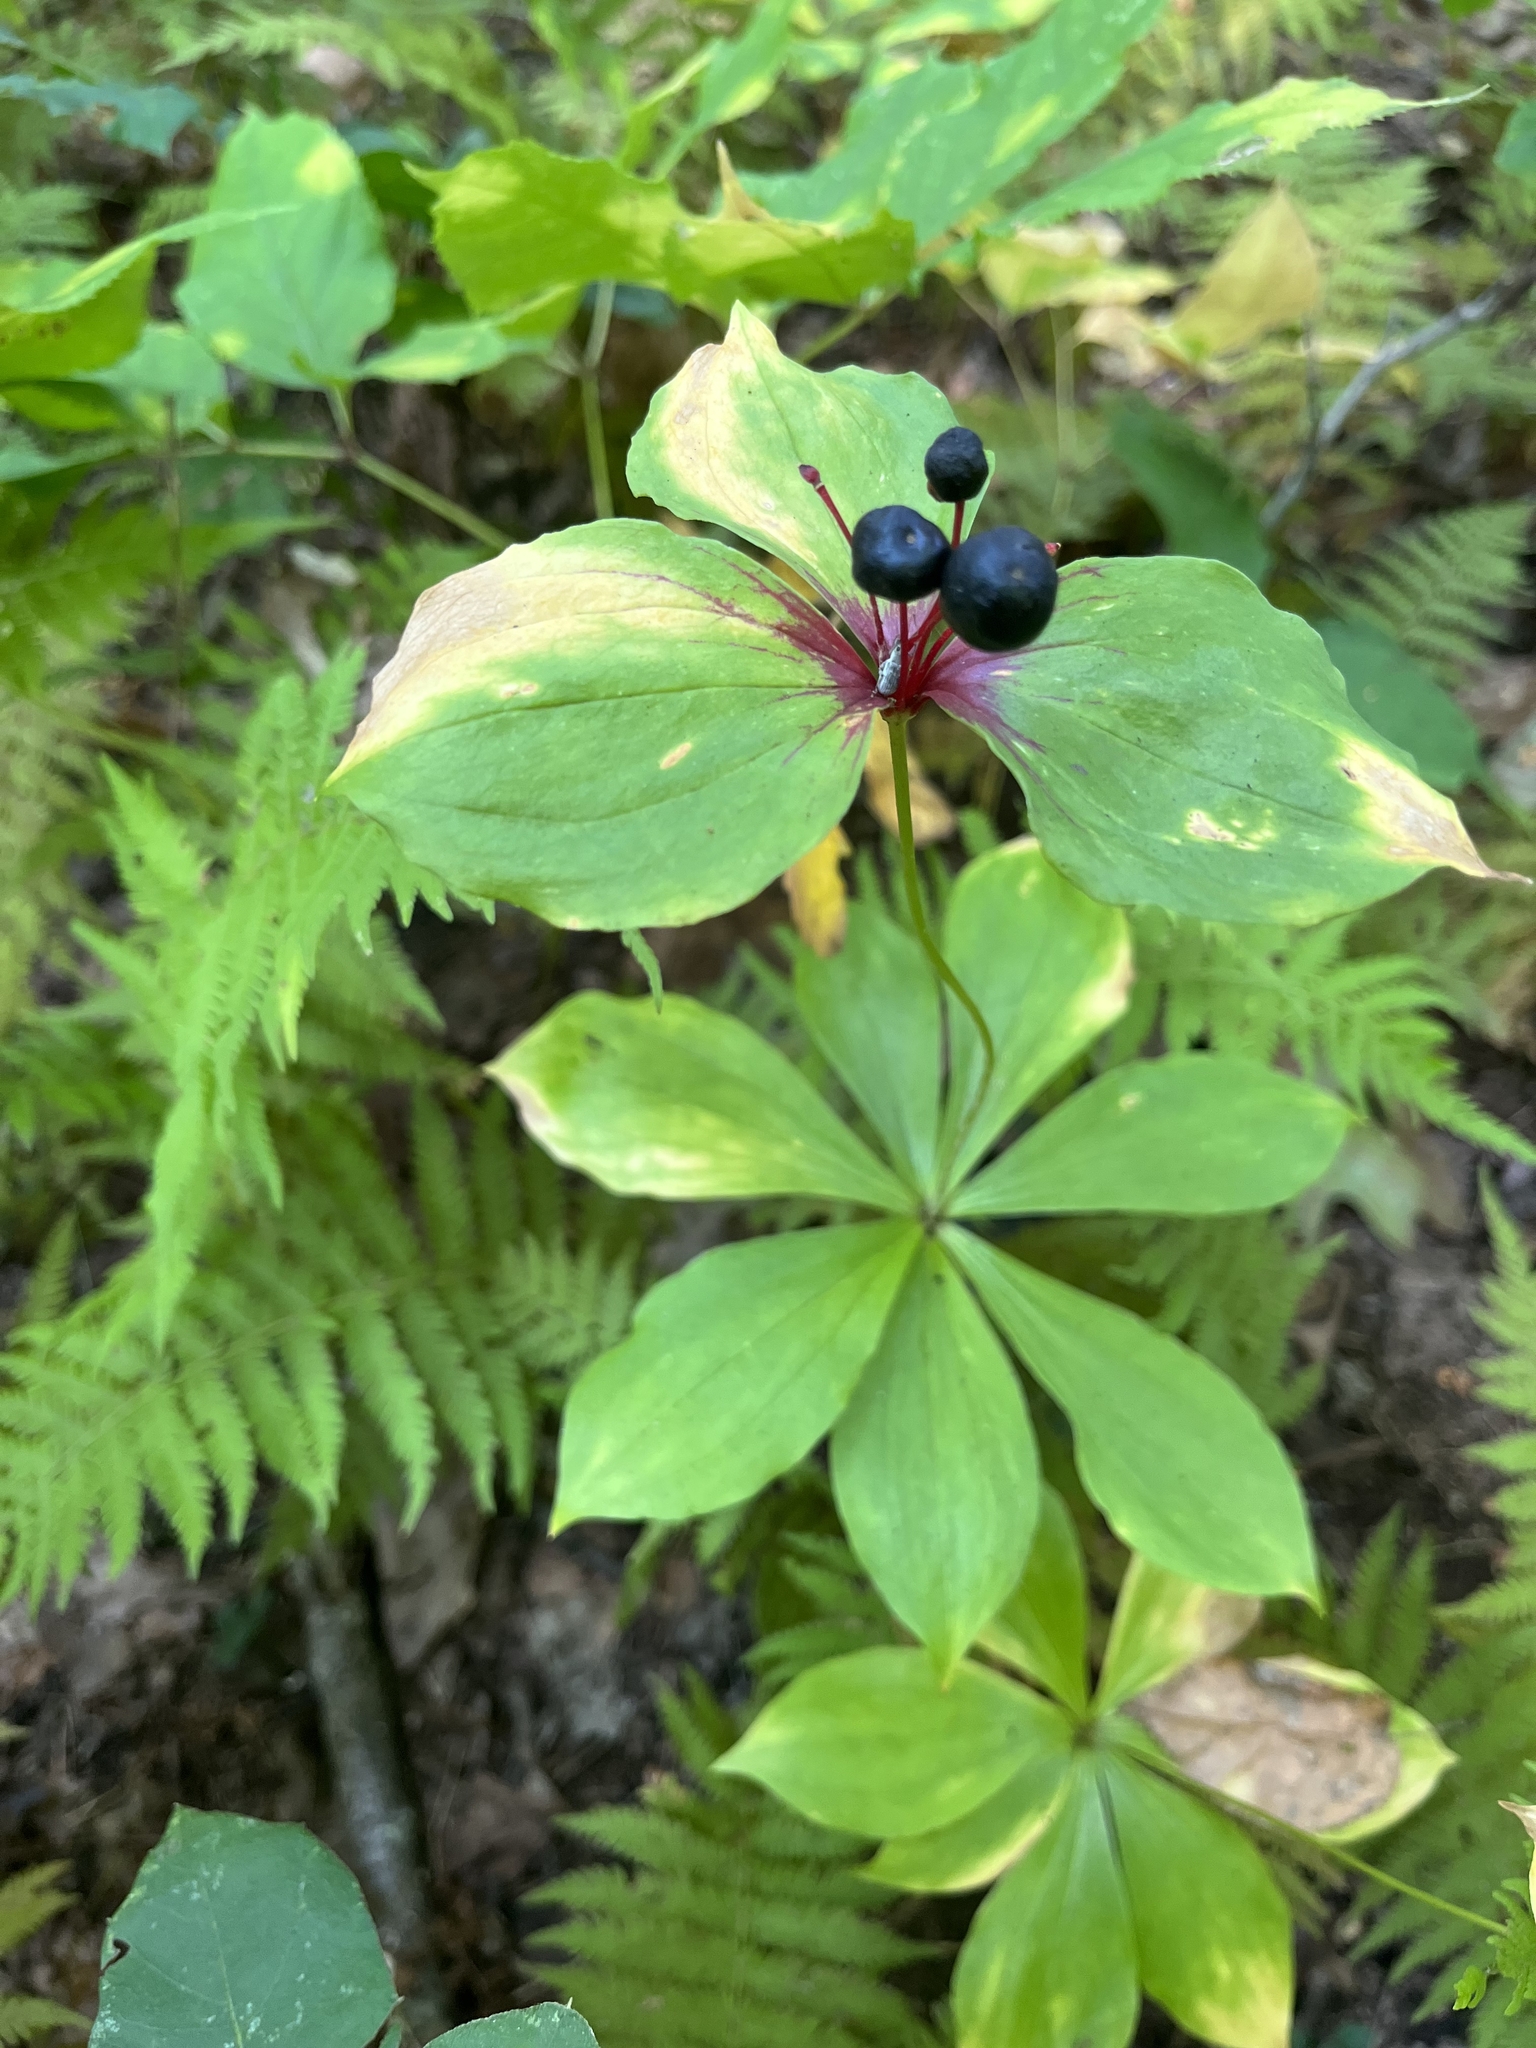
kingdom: Plantae
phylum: Tracheophyta
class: Liliopsida
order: Liliales
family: Liliaceae
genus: Medeola
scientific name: Medeola virginiana
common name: Indian cucumber-root
